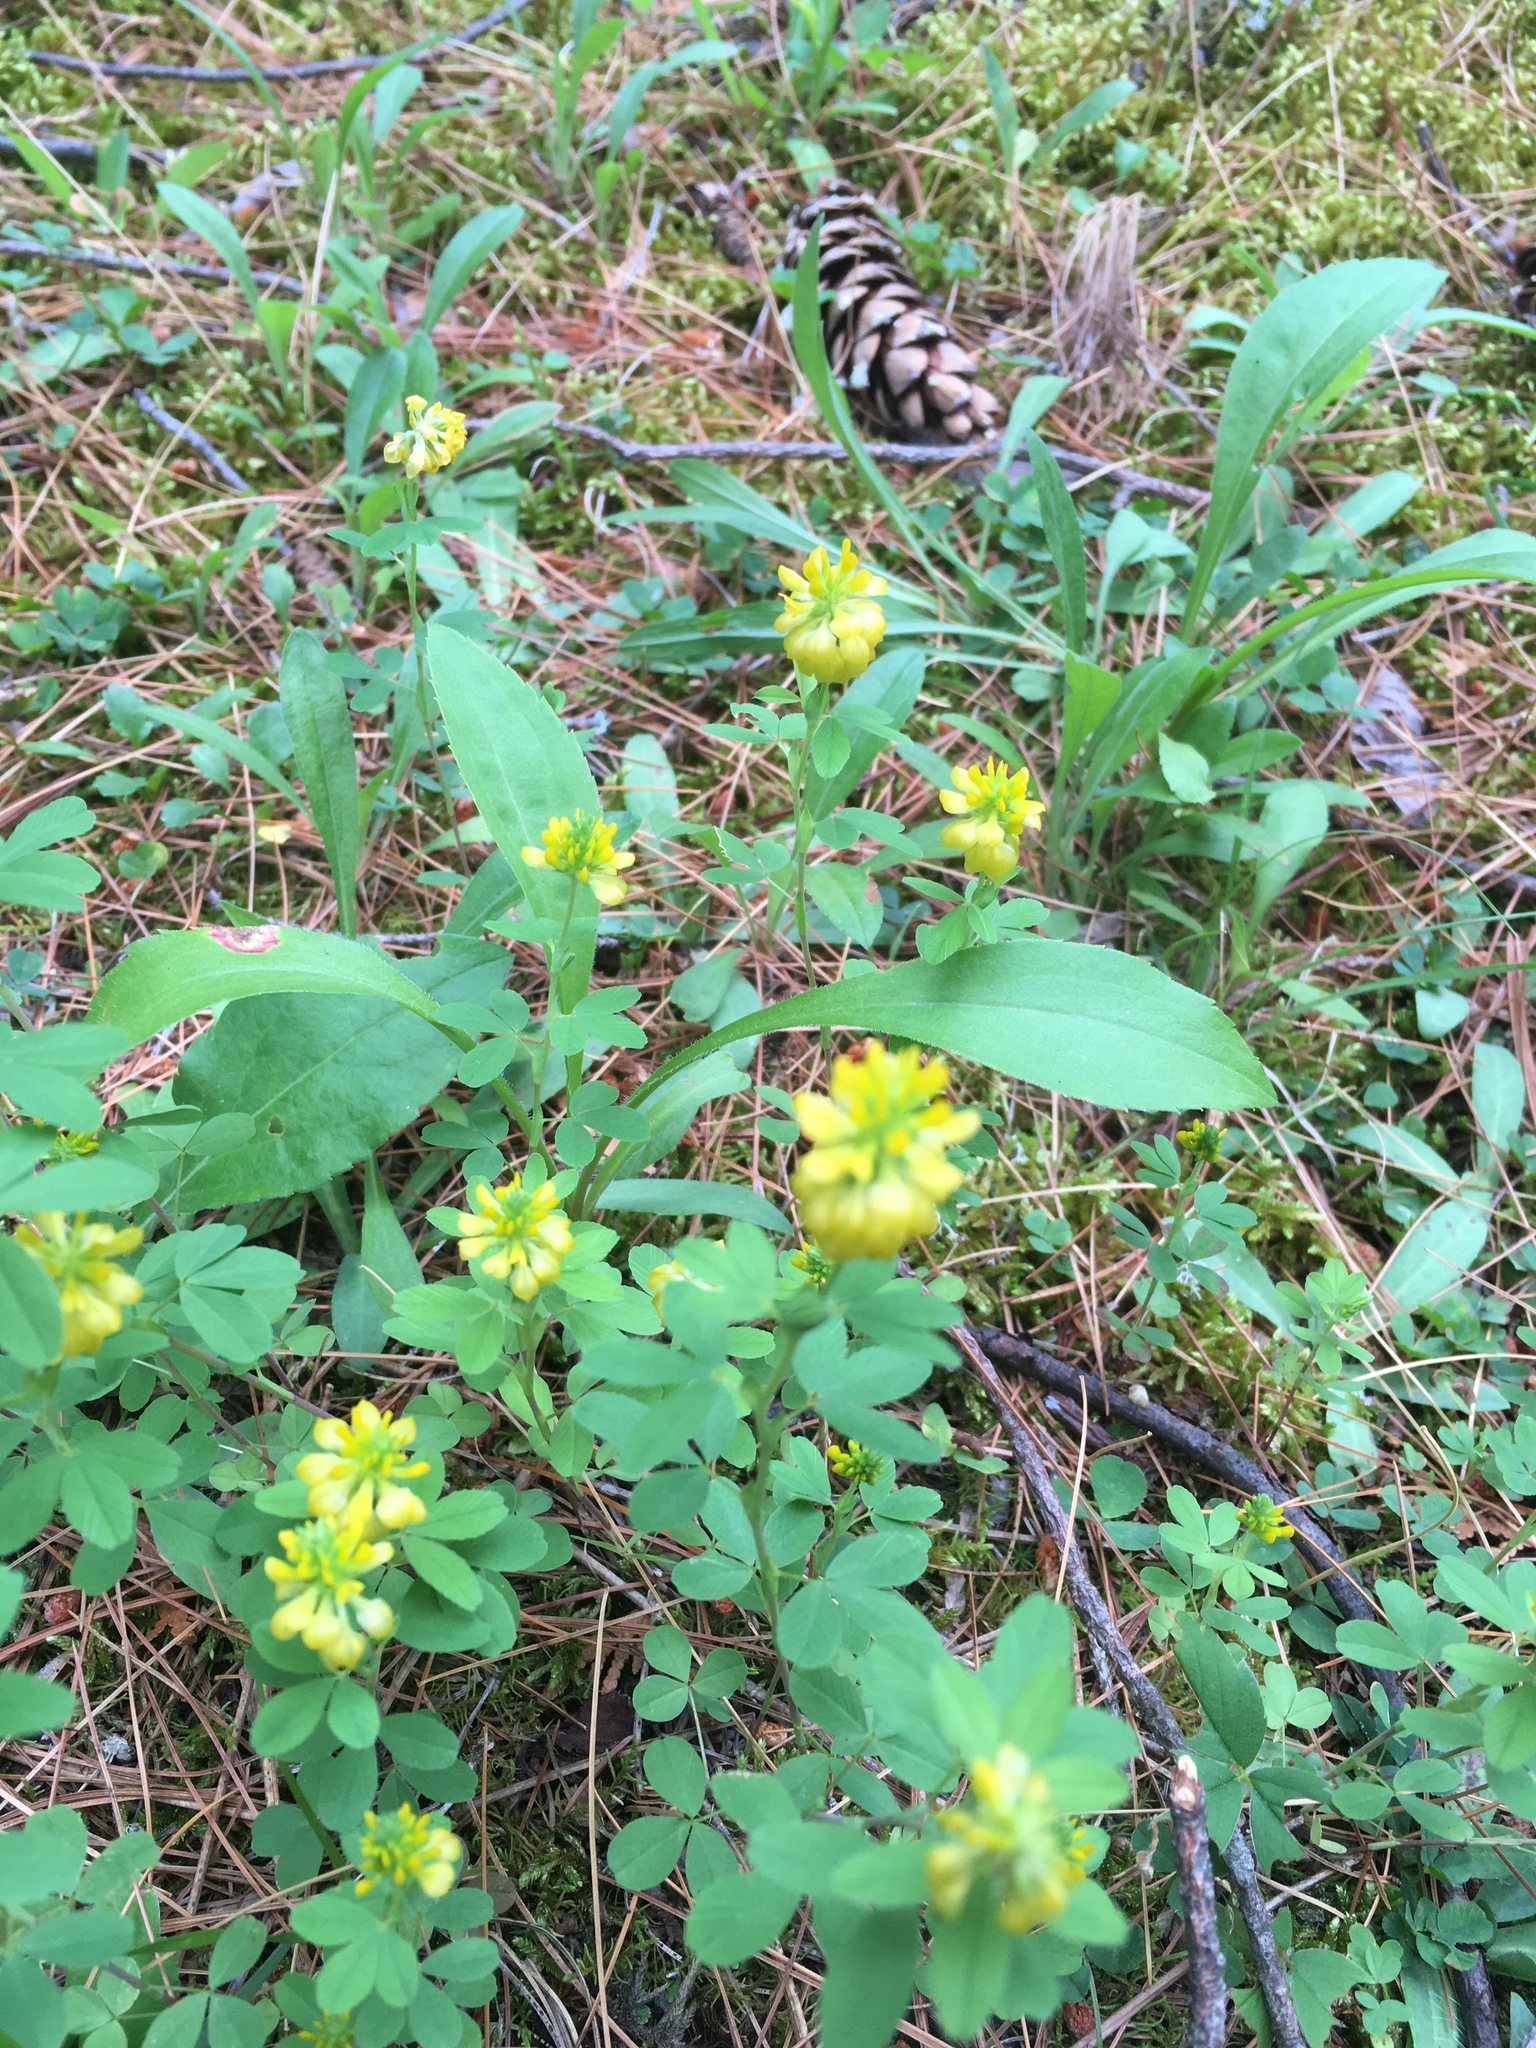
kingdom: Plantae
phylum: Tracheophyta
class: Magnoliopsida
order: Fabales
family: Fabaceae
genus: Trifolium
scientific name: Trifolium aureum
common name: Golden clover
